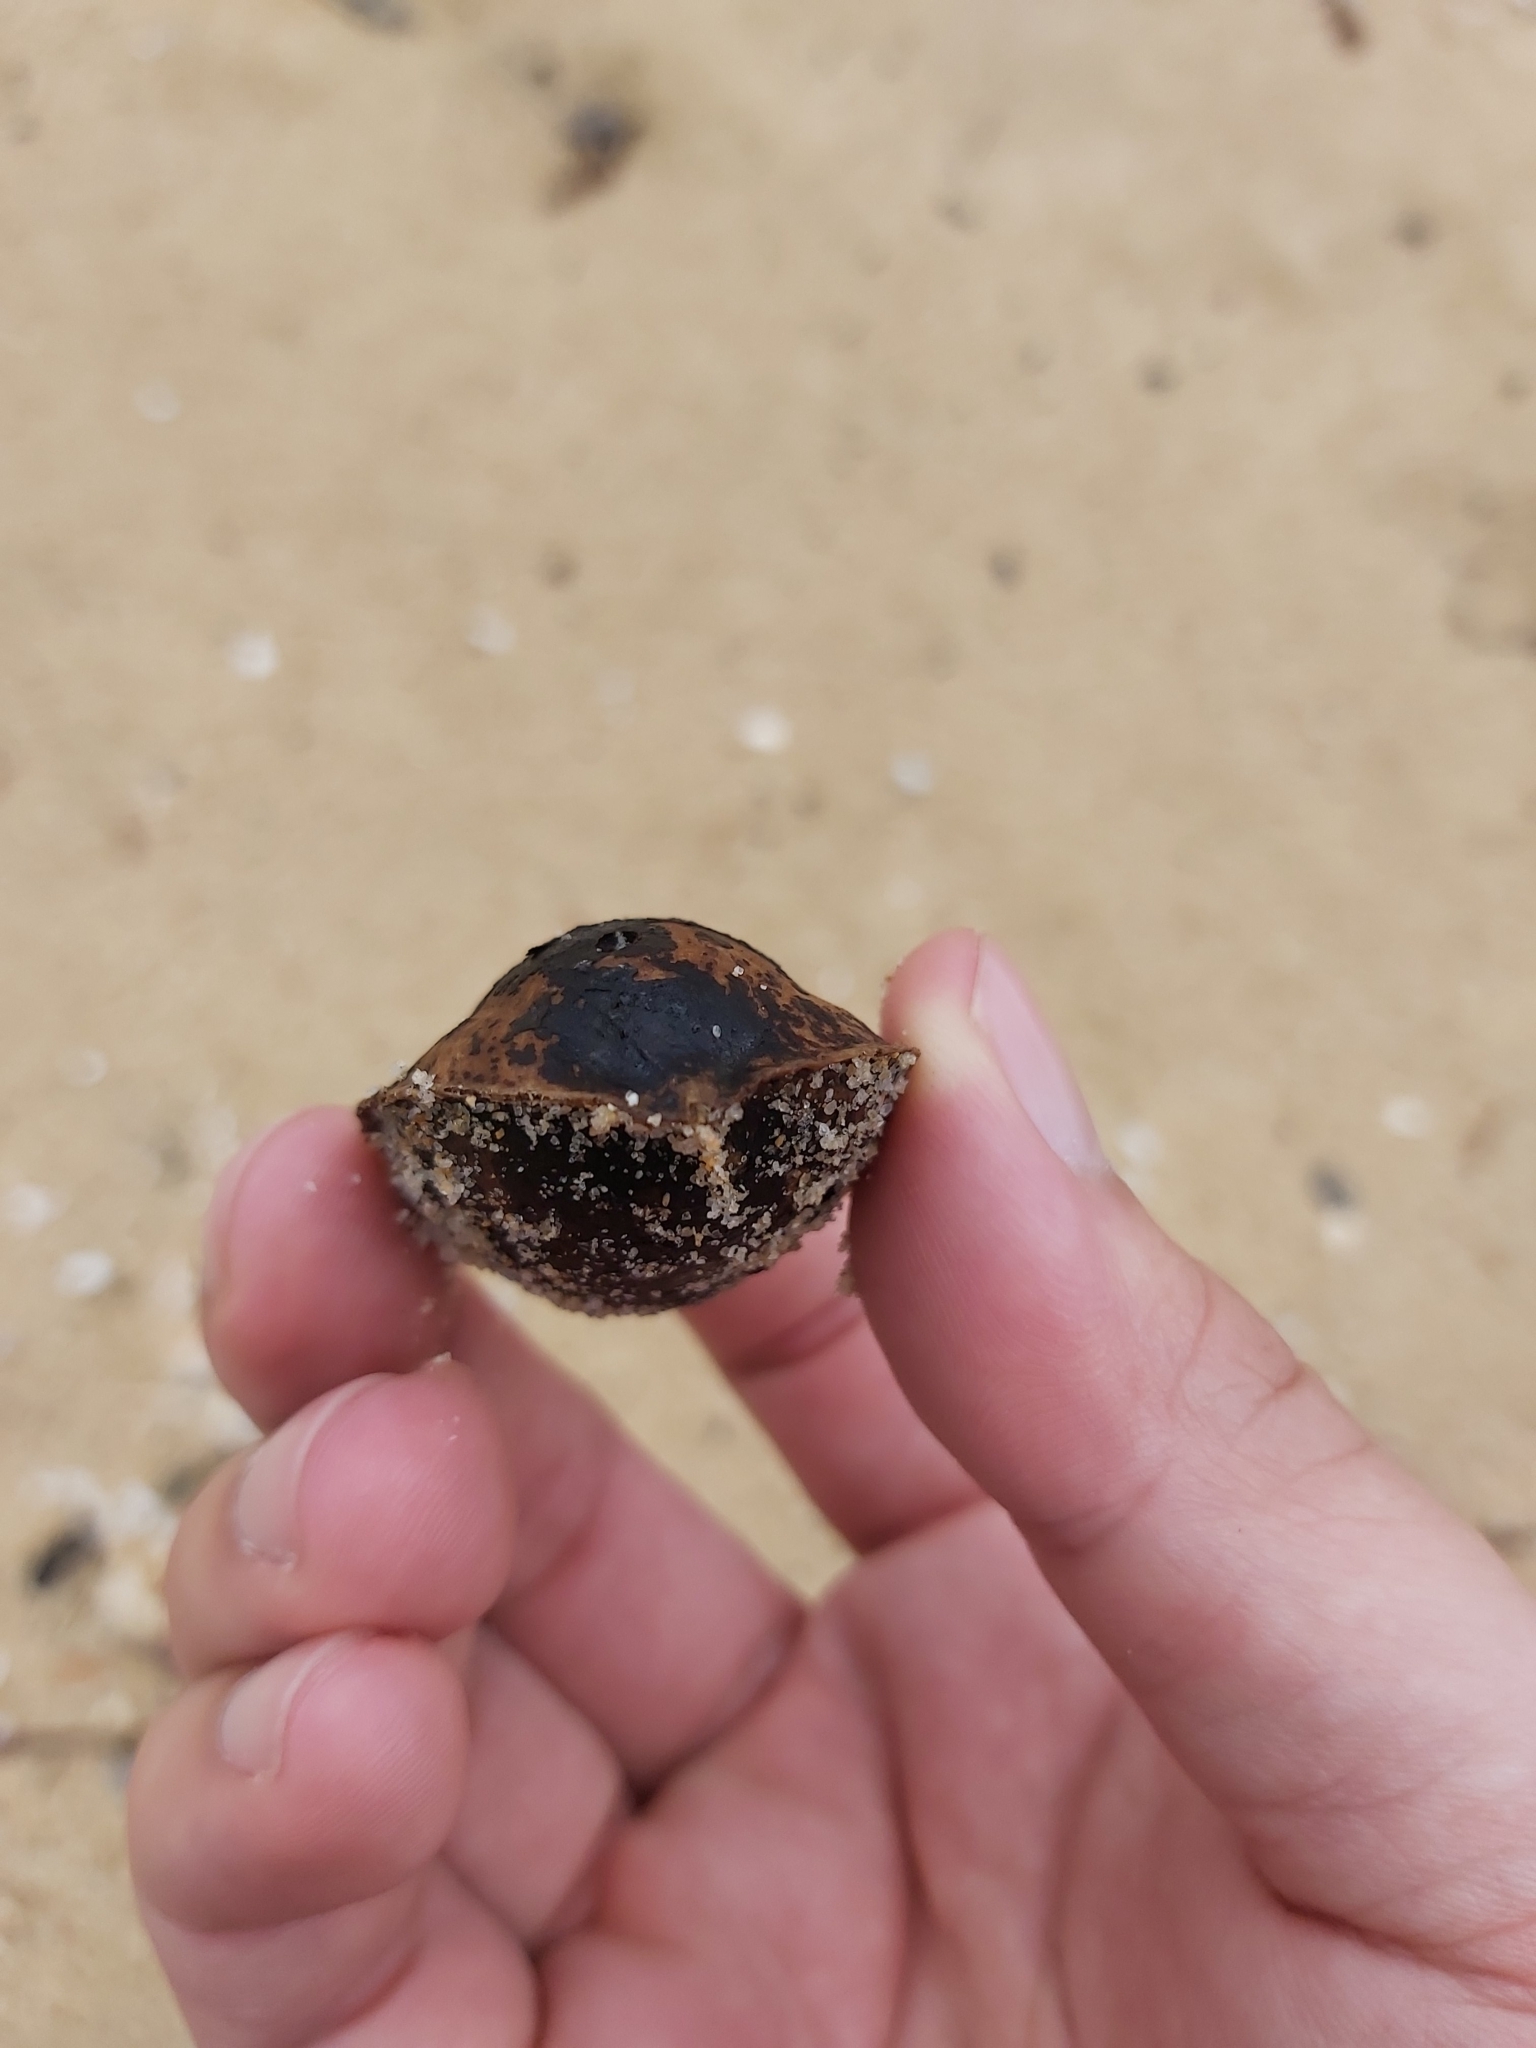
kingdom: Plantae
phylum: Tracheophyta
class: Magnoliopsida
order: Myrtales
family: Combretaceae
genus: Terminalia
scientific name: Terminalia catappa
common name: Tropical almond
